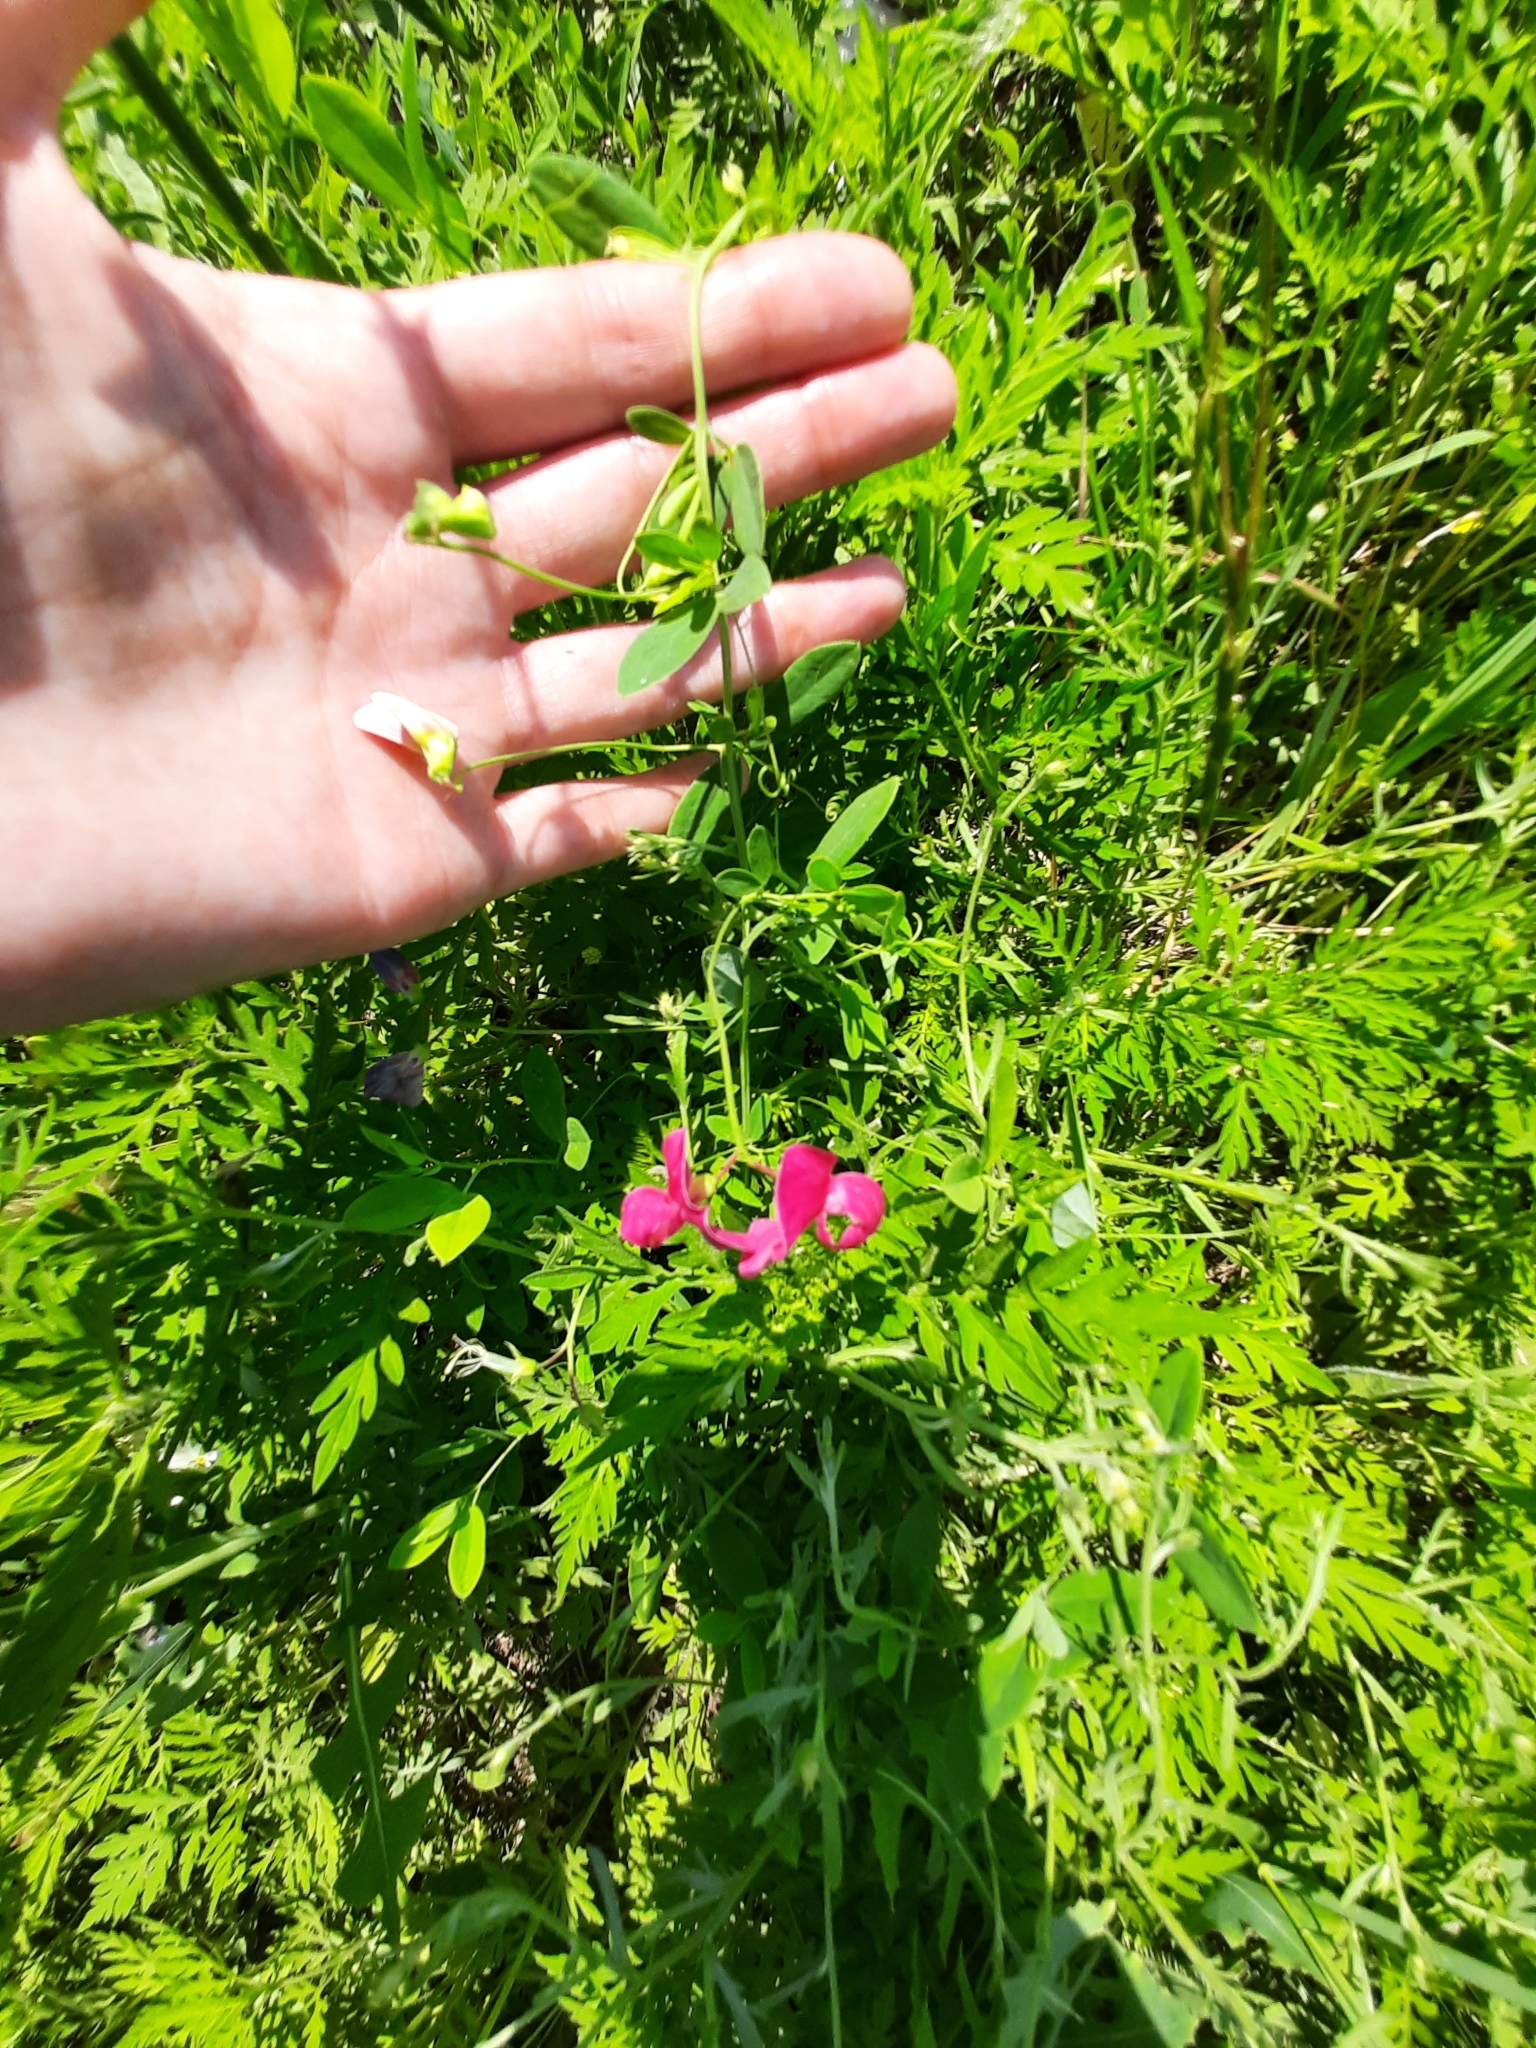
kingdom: Plantae
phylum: Tracheophyta
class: Magnoliopsida
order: Fabales
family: Fabaceae
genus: Lathyrus
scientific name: Lathyrus tuberosus
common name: Tuberous pea
